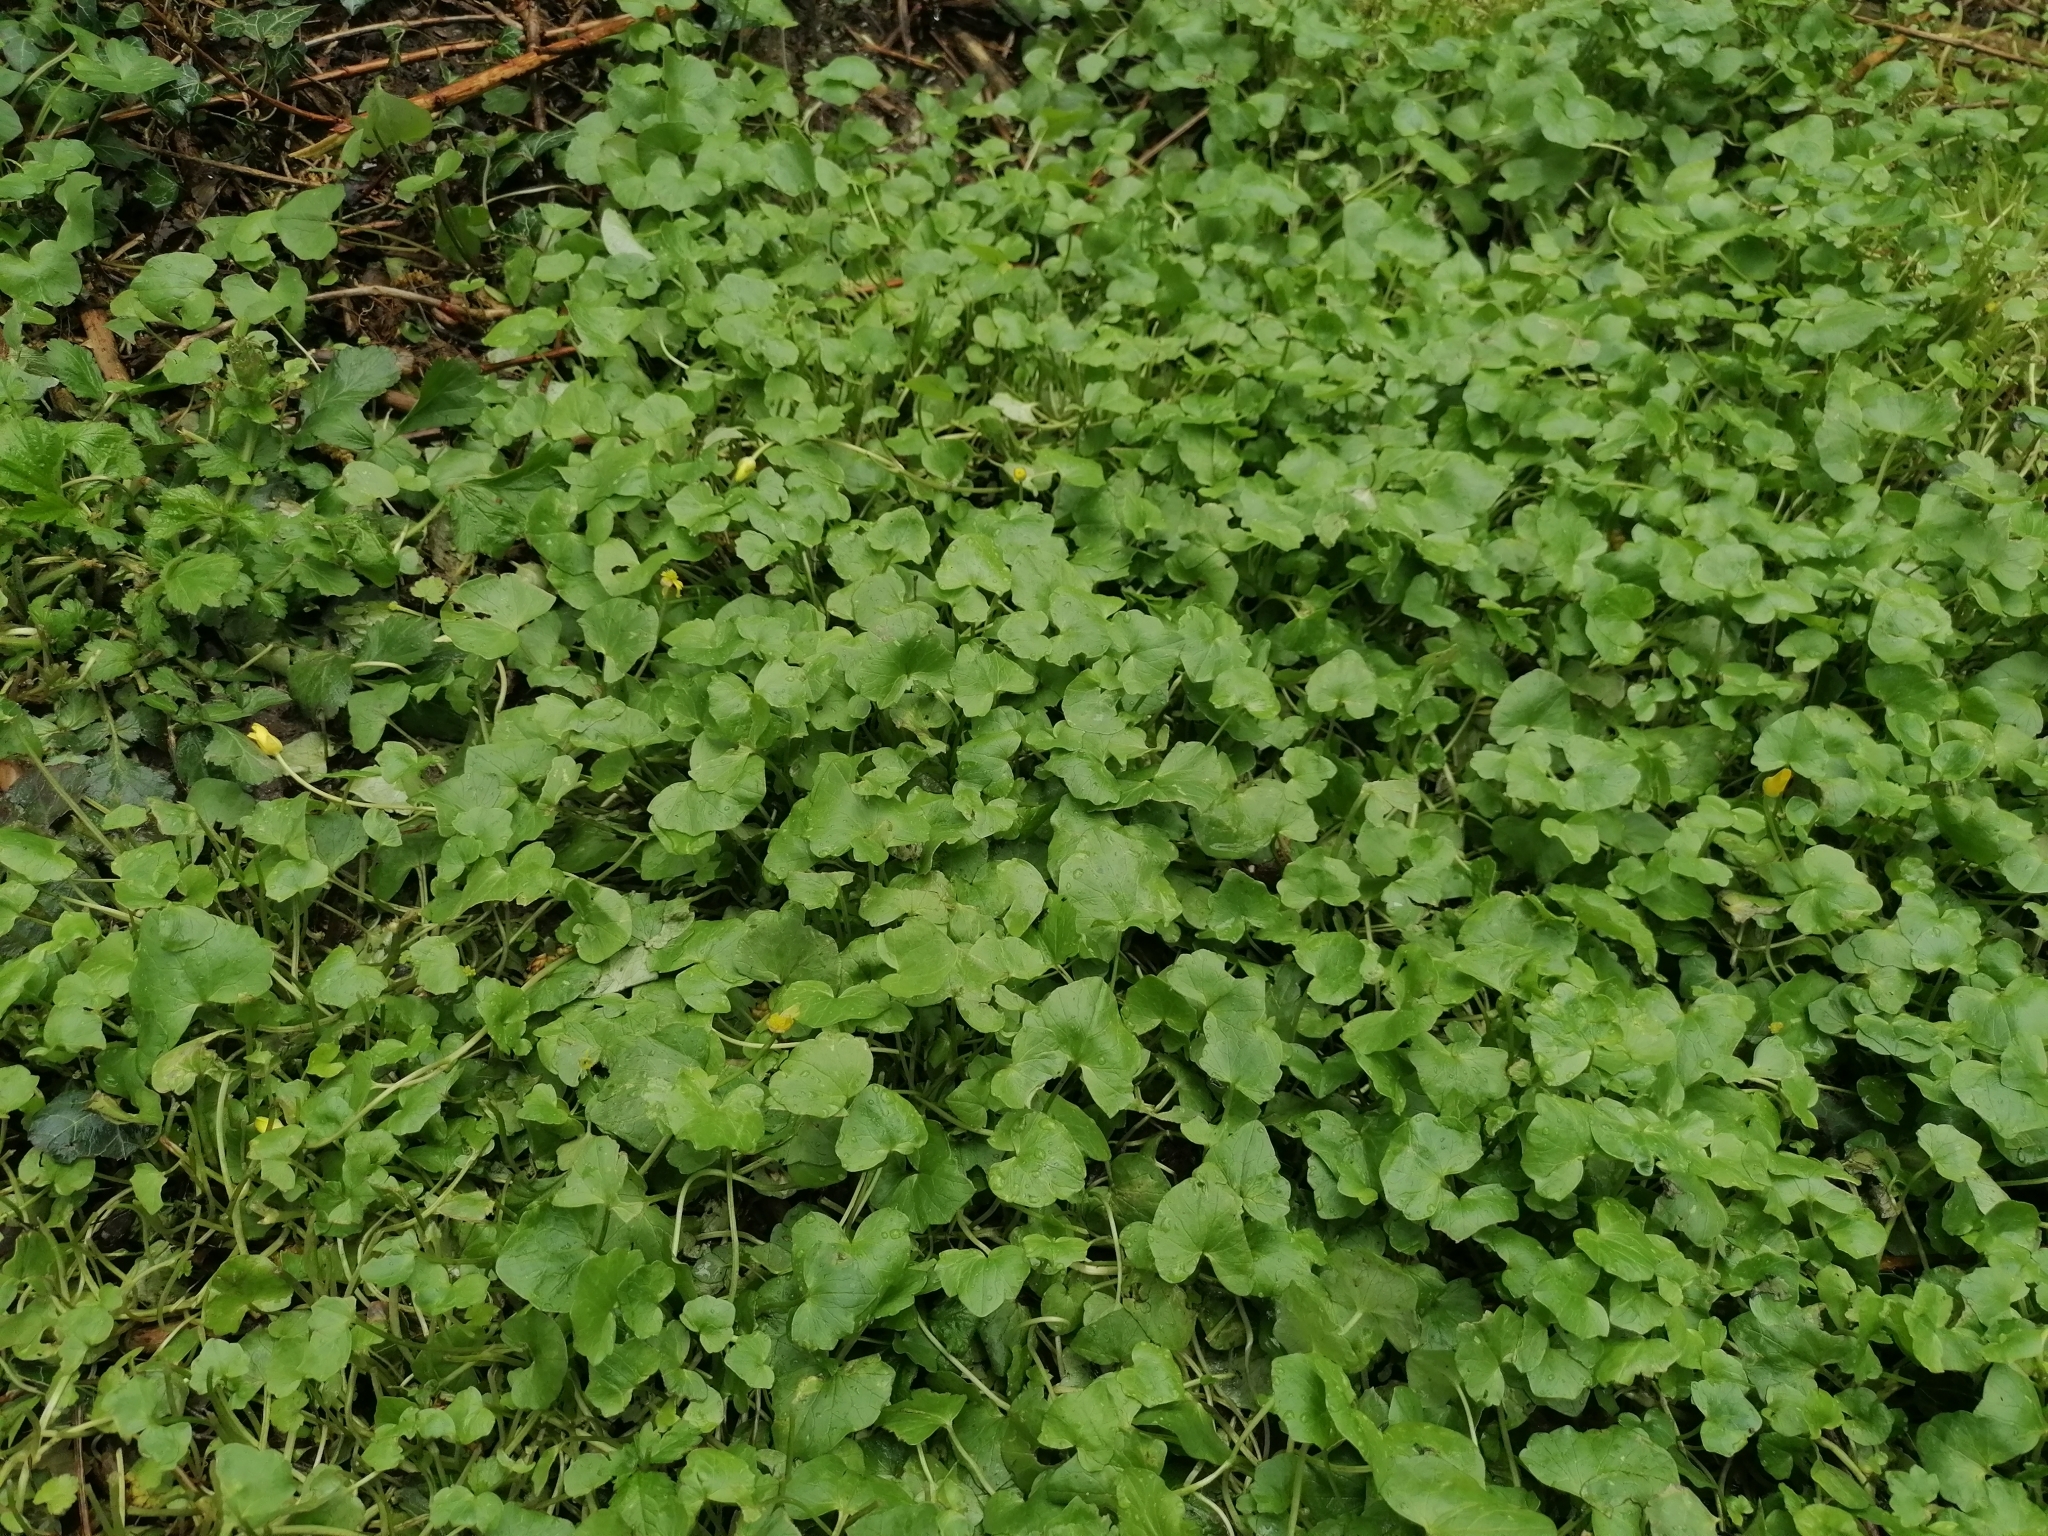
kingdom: Plantae
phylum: Tracheophyta
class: Magnoliopsida
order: Ranunculales
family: Ranunculaceae
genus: Ficaria
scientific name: Ficaria verna
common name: Lesser celandine
